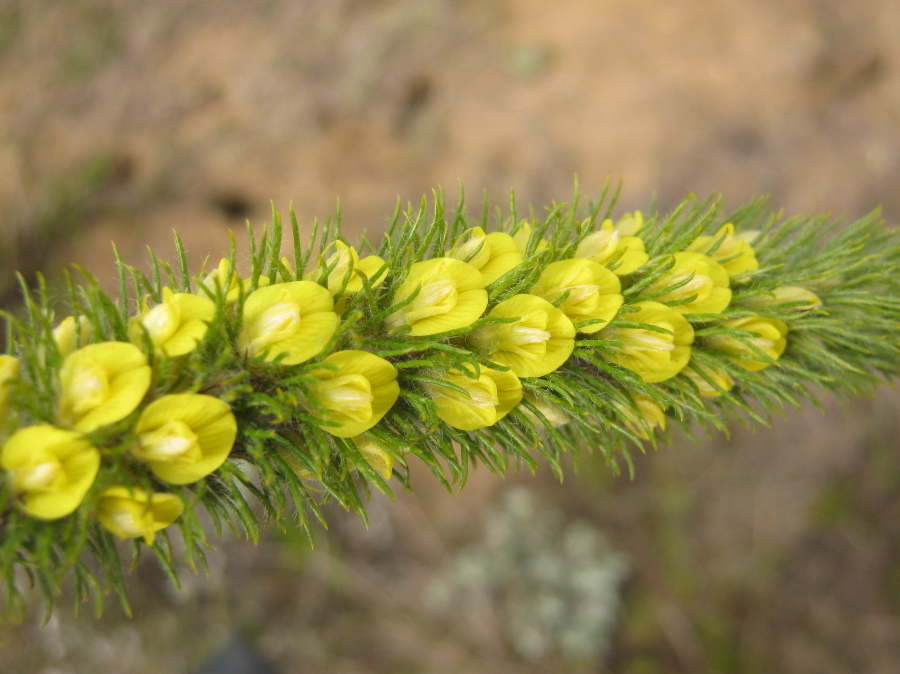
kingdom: Plantae
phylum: Tracheophyta
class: Magnoliopsida
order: Fabales
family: Fabaceae
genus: Aspalathus
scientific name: Aspalathus alopecurus
